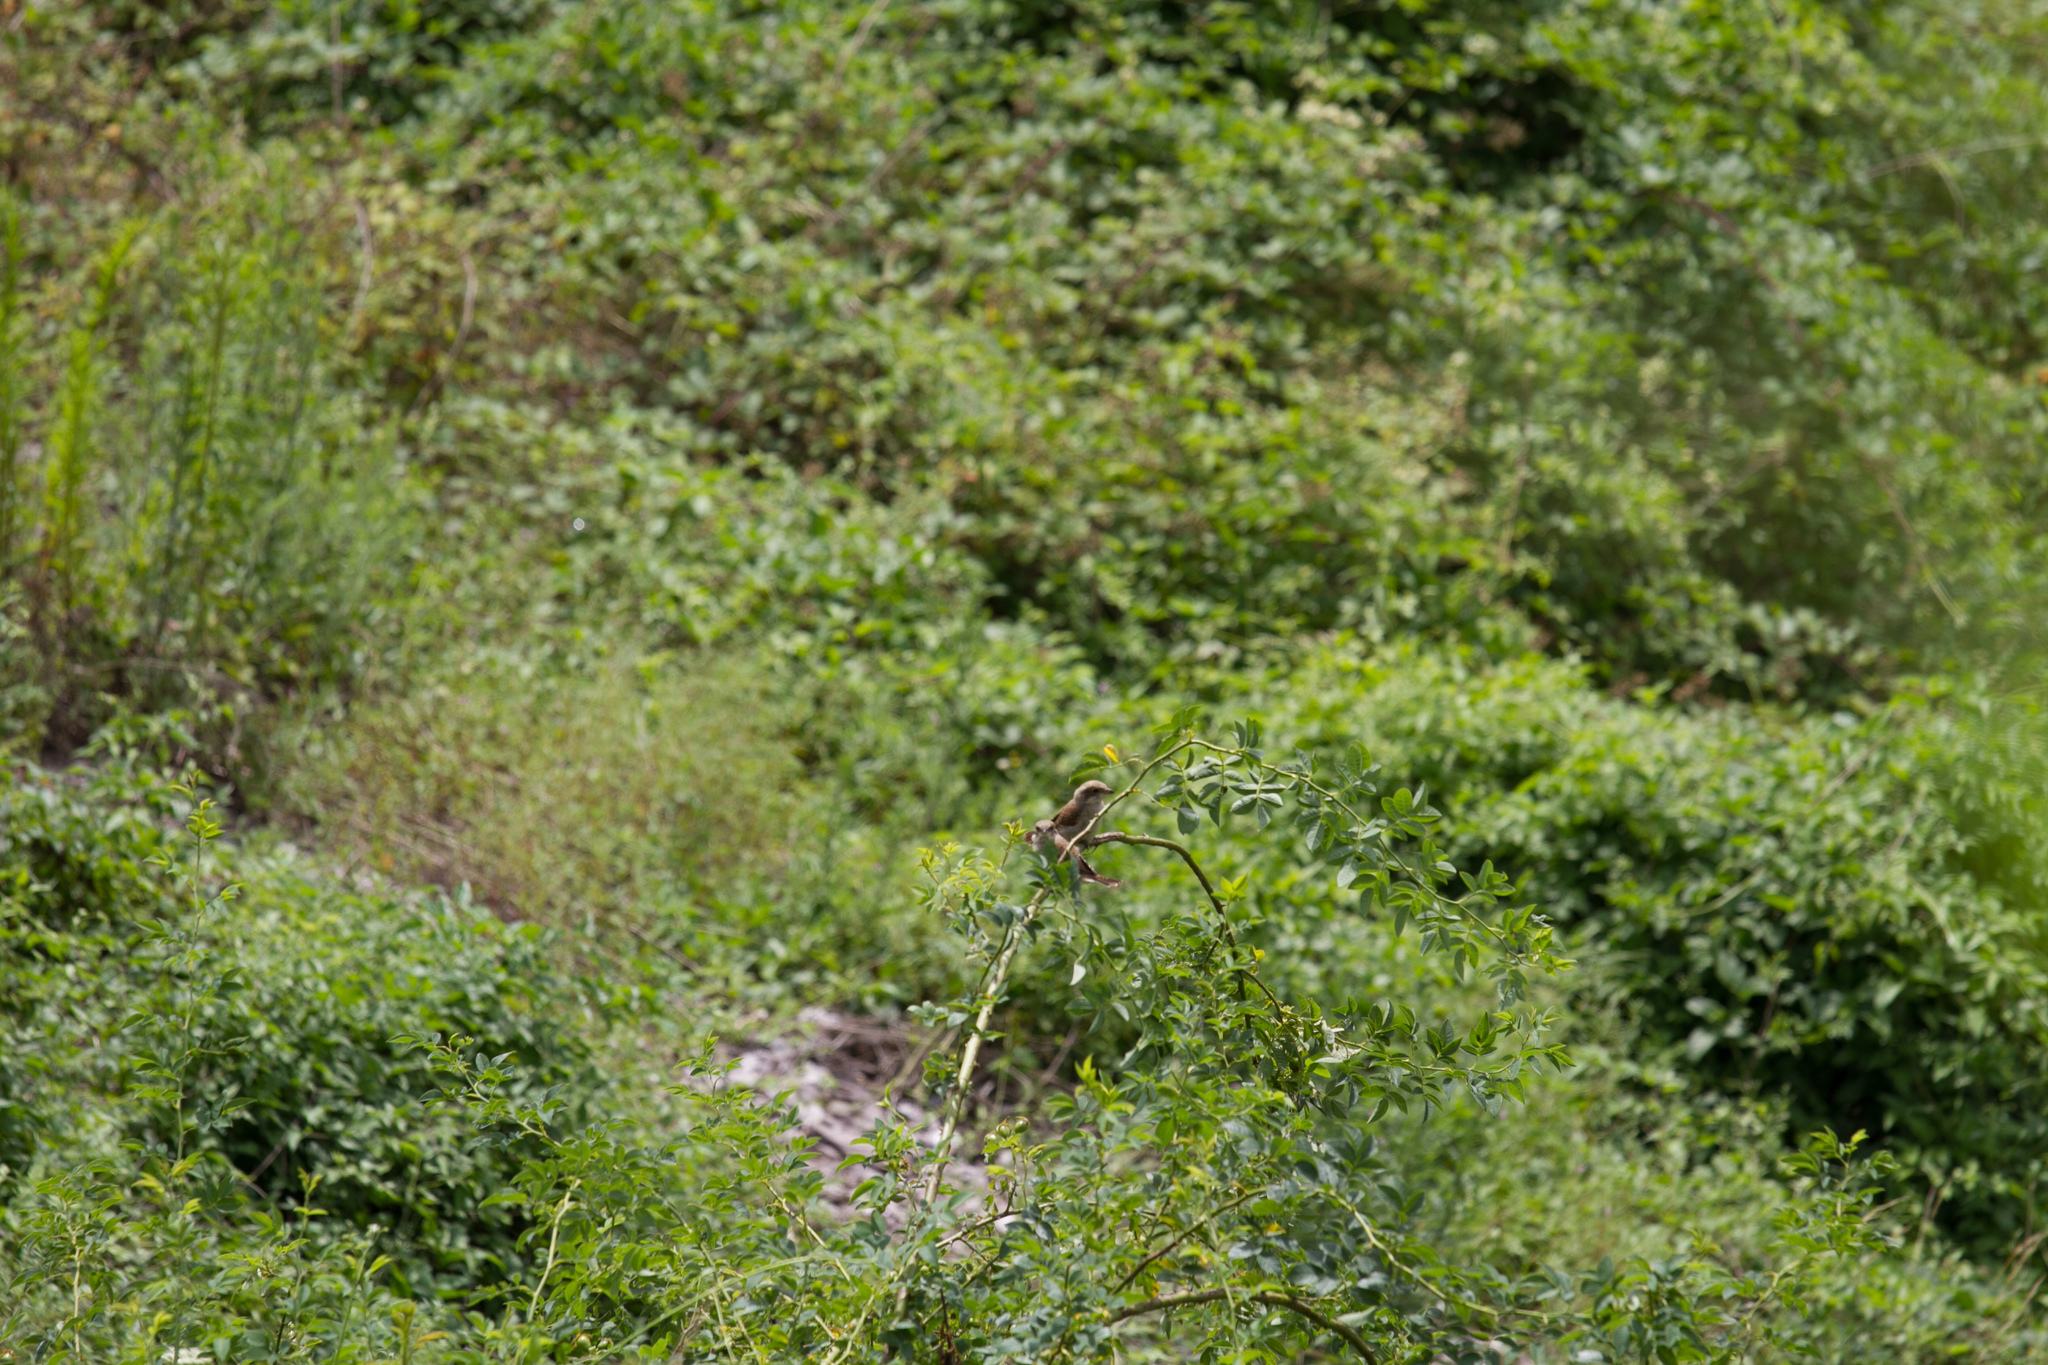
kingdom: Animalia
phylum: Chordata
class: Aves
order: Passeriformes
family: Laniidae
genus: Lanius
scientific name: Lanius collurio
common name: Red-backed shrike
